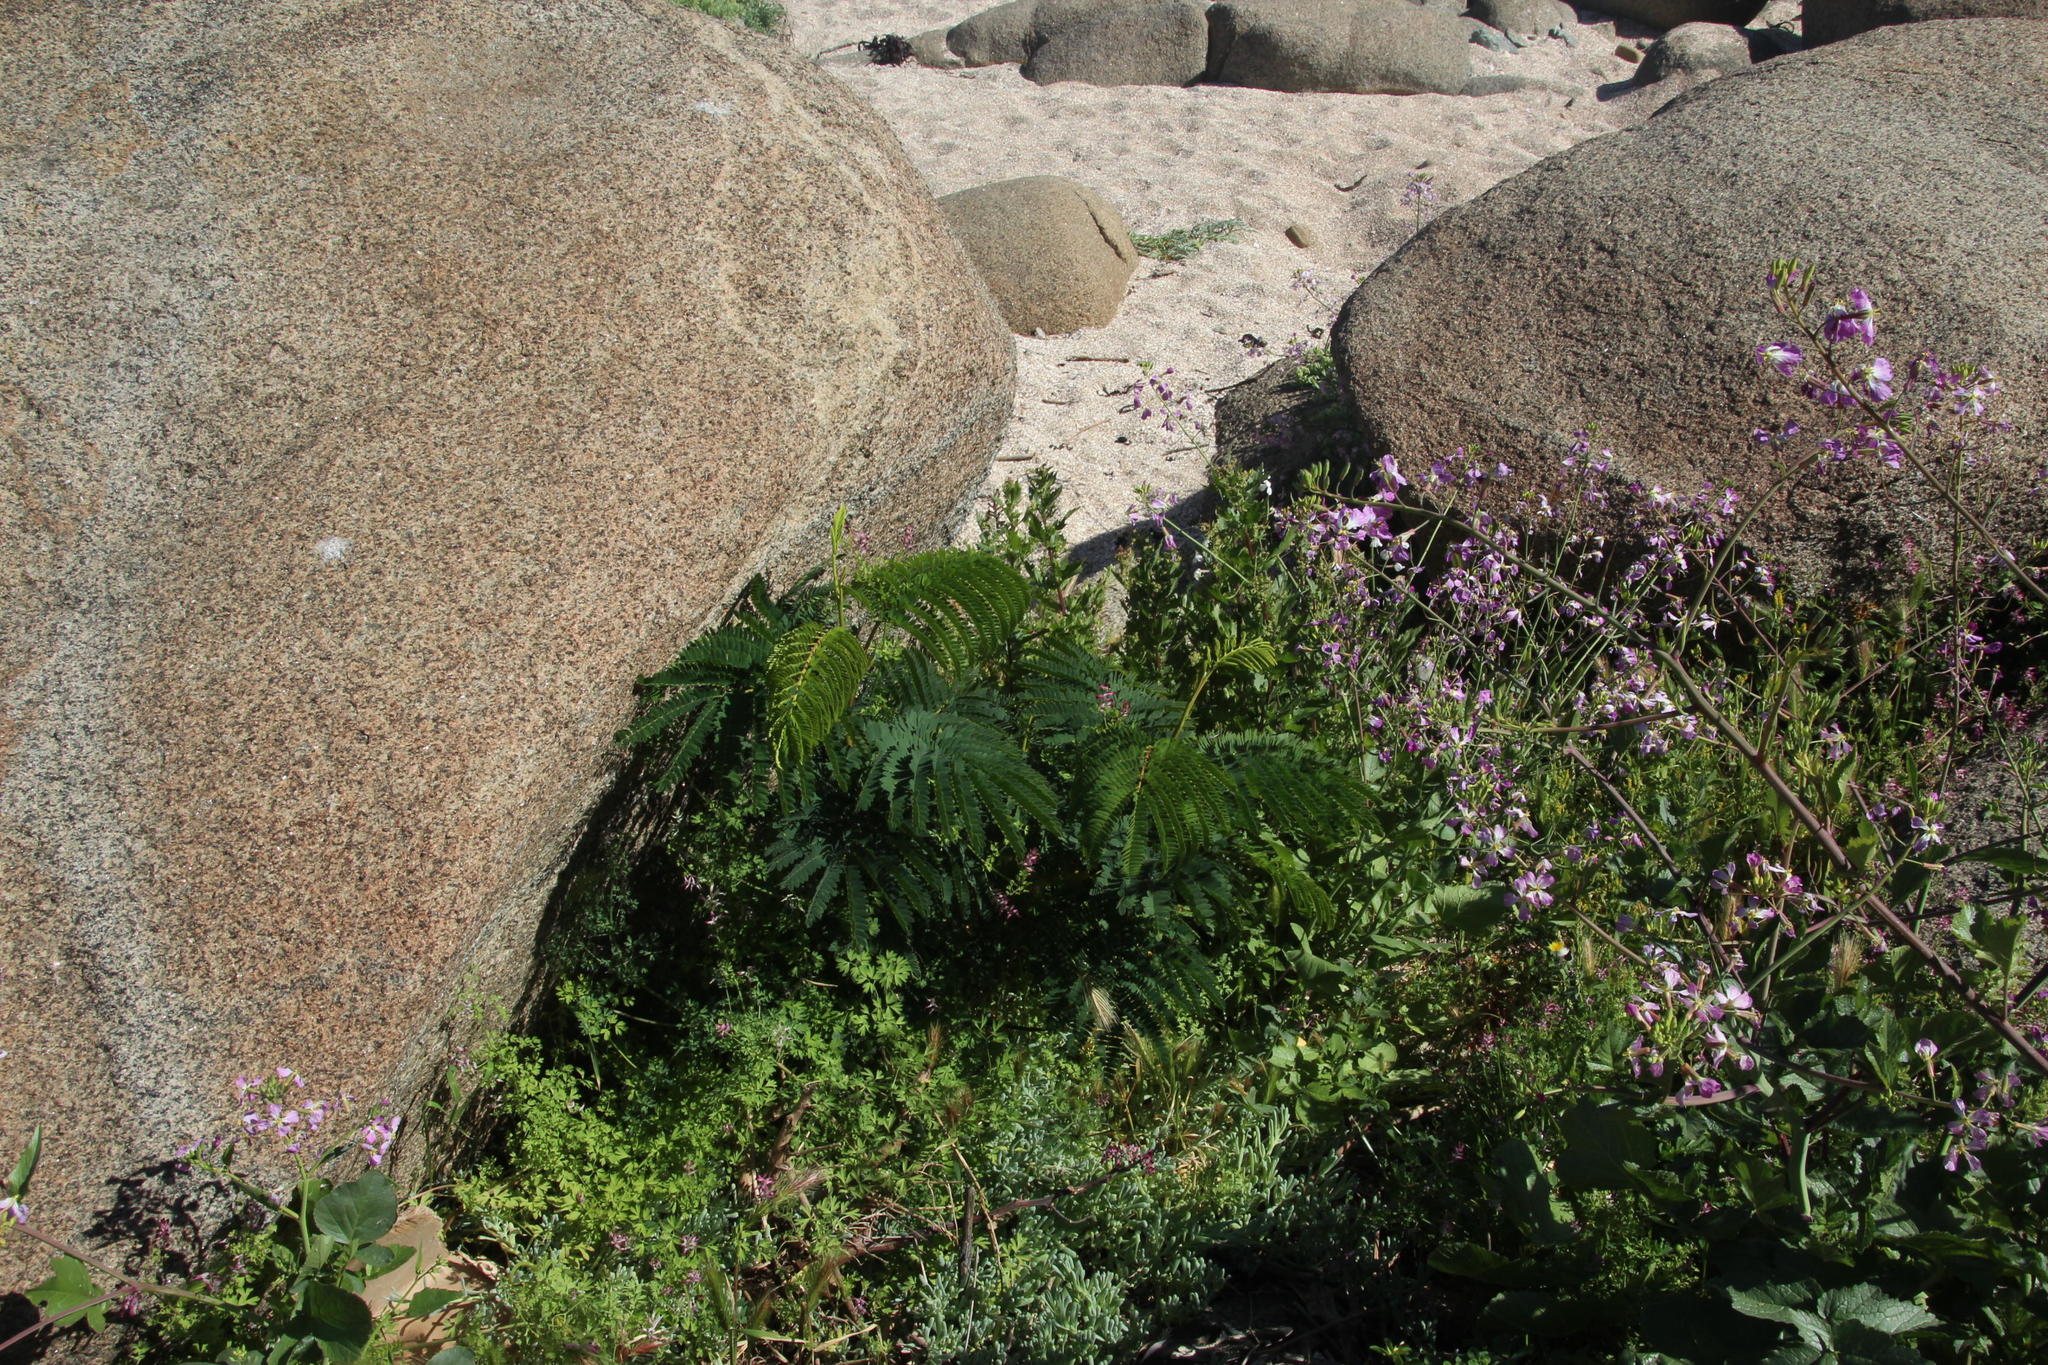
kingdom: Plantae
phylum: Tracheophyta
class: Magnoliopsida
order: Fabales
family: Fabaceae
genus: Paraserianthes
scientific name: Paraserianthes lophantha
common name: Plume albizia
